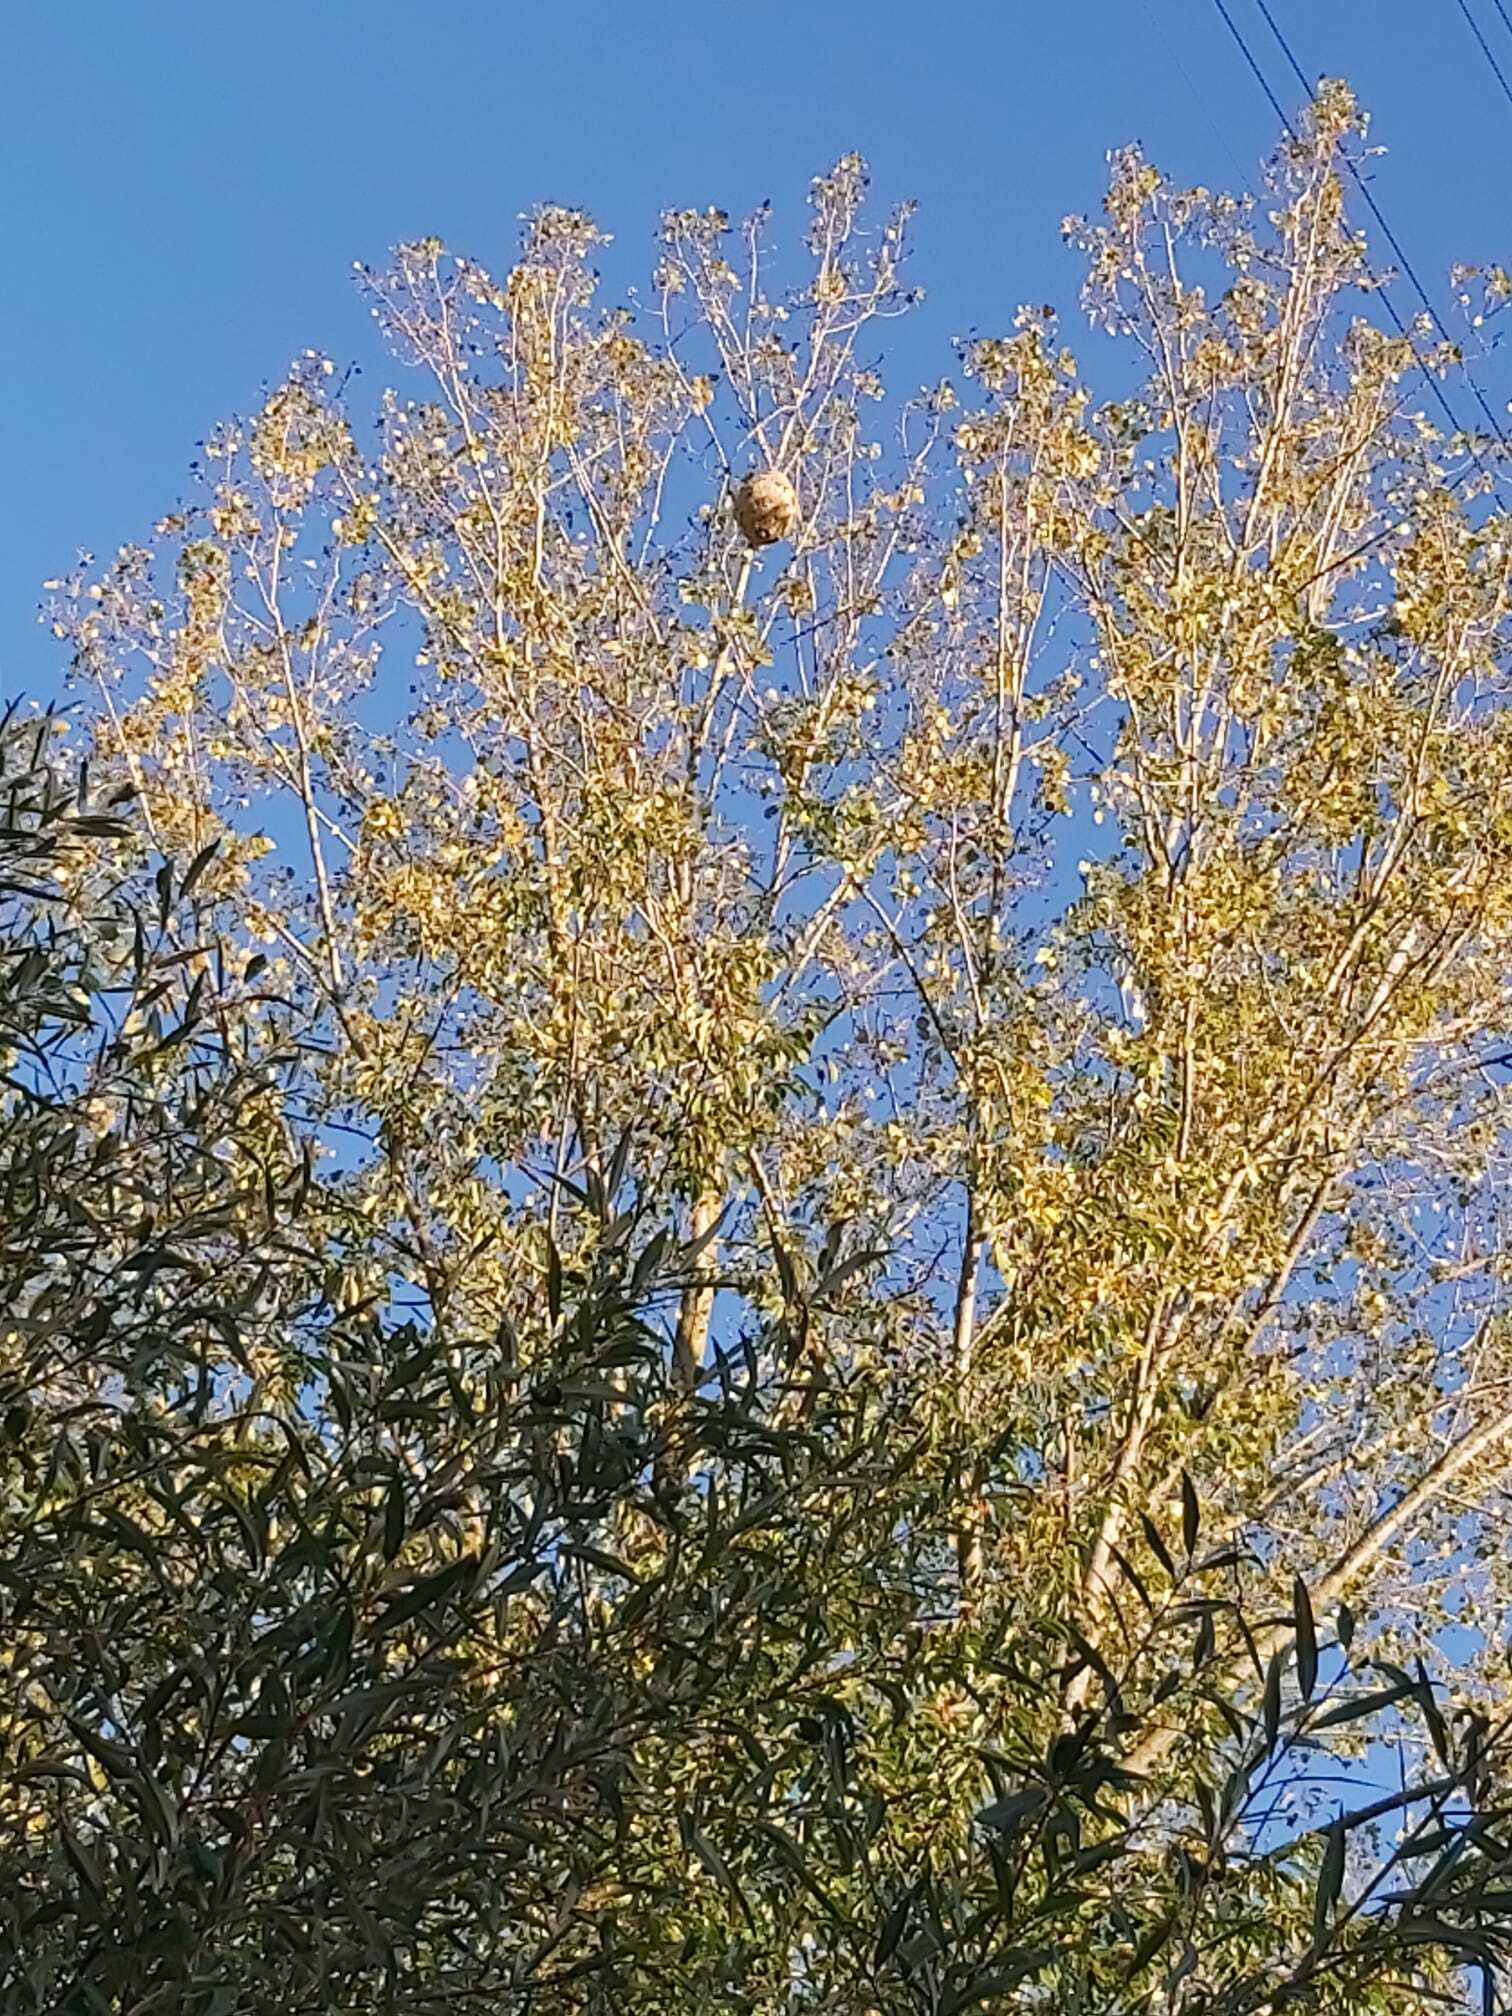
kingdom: Animalia
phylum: Arthropoda
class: Insecta
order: Hymenoptera
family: Vespidae
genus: Vespa
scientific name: Vespa velutina
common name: Asian hornet
